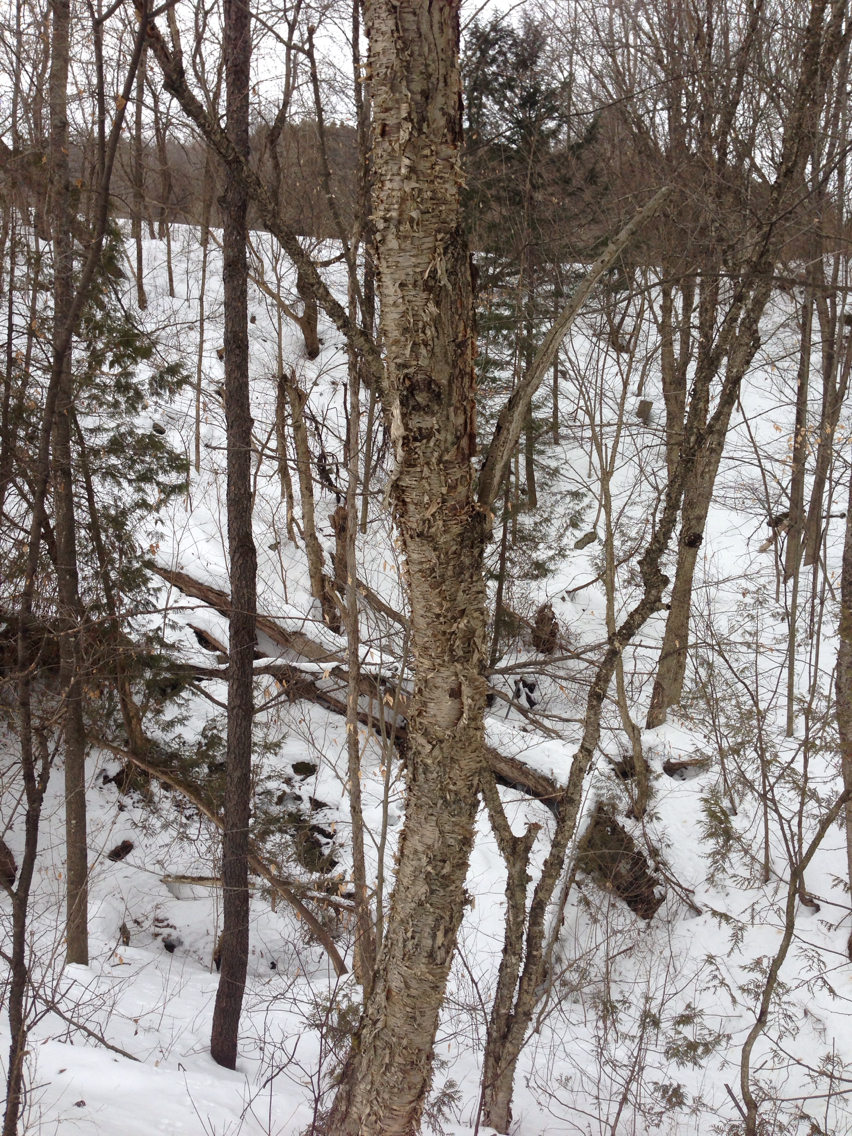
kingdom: Plantae
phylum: Tracheophyta
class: Magnoliopsida
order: Fagales
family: Betulaceae
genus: Betula
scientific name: Betula alleghaniensis
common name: Yellow birch
